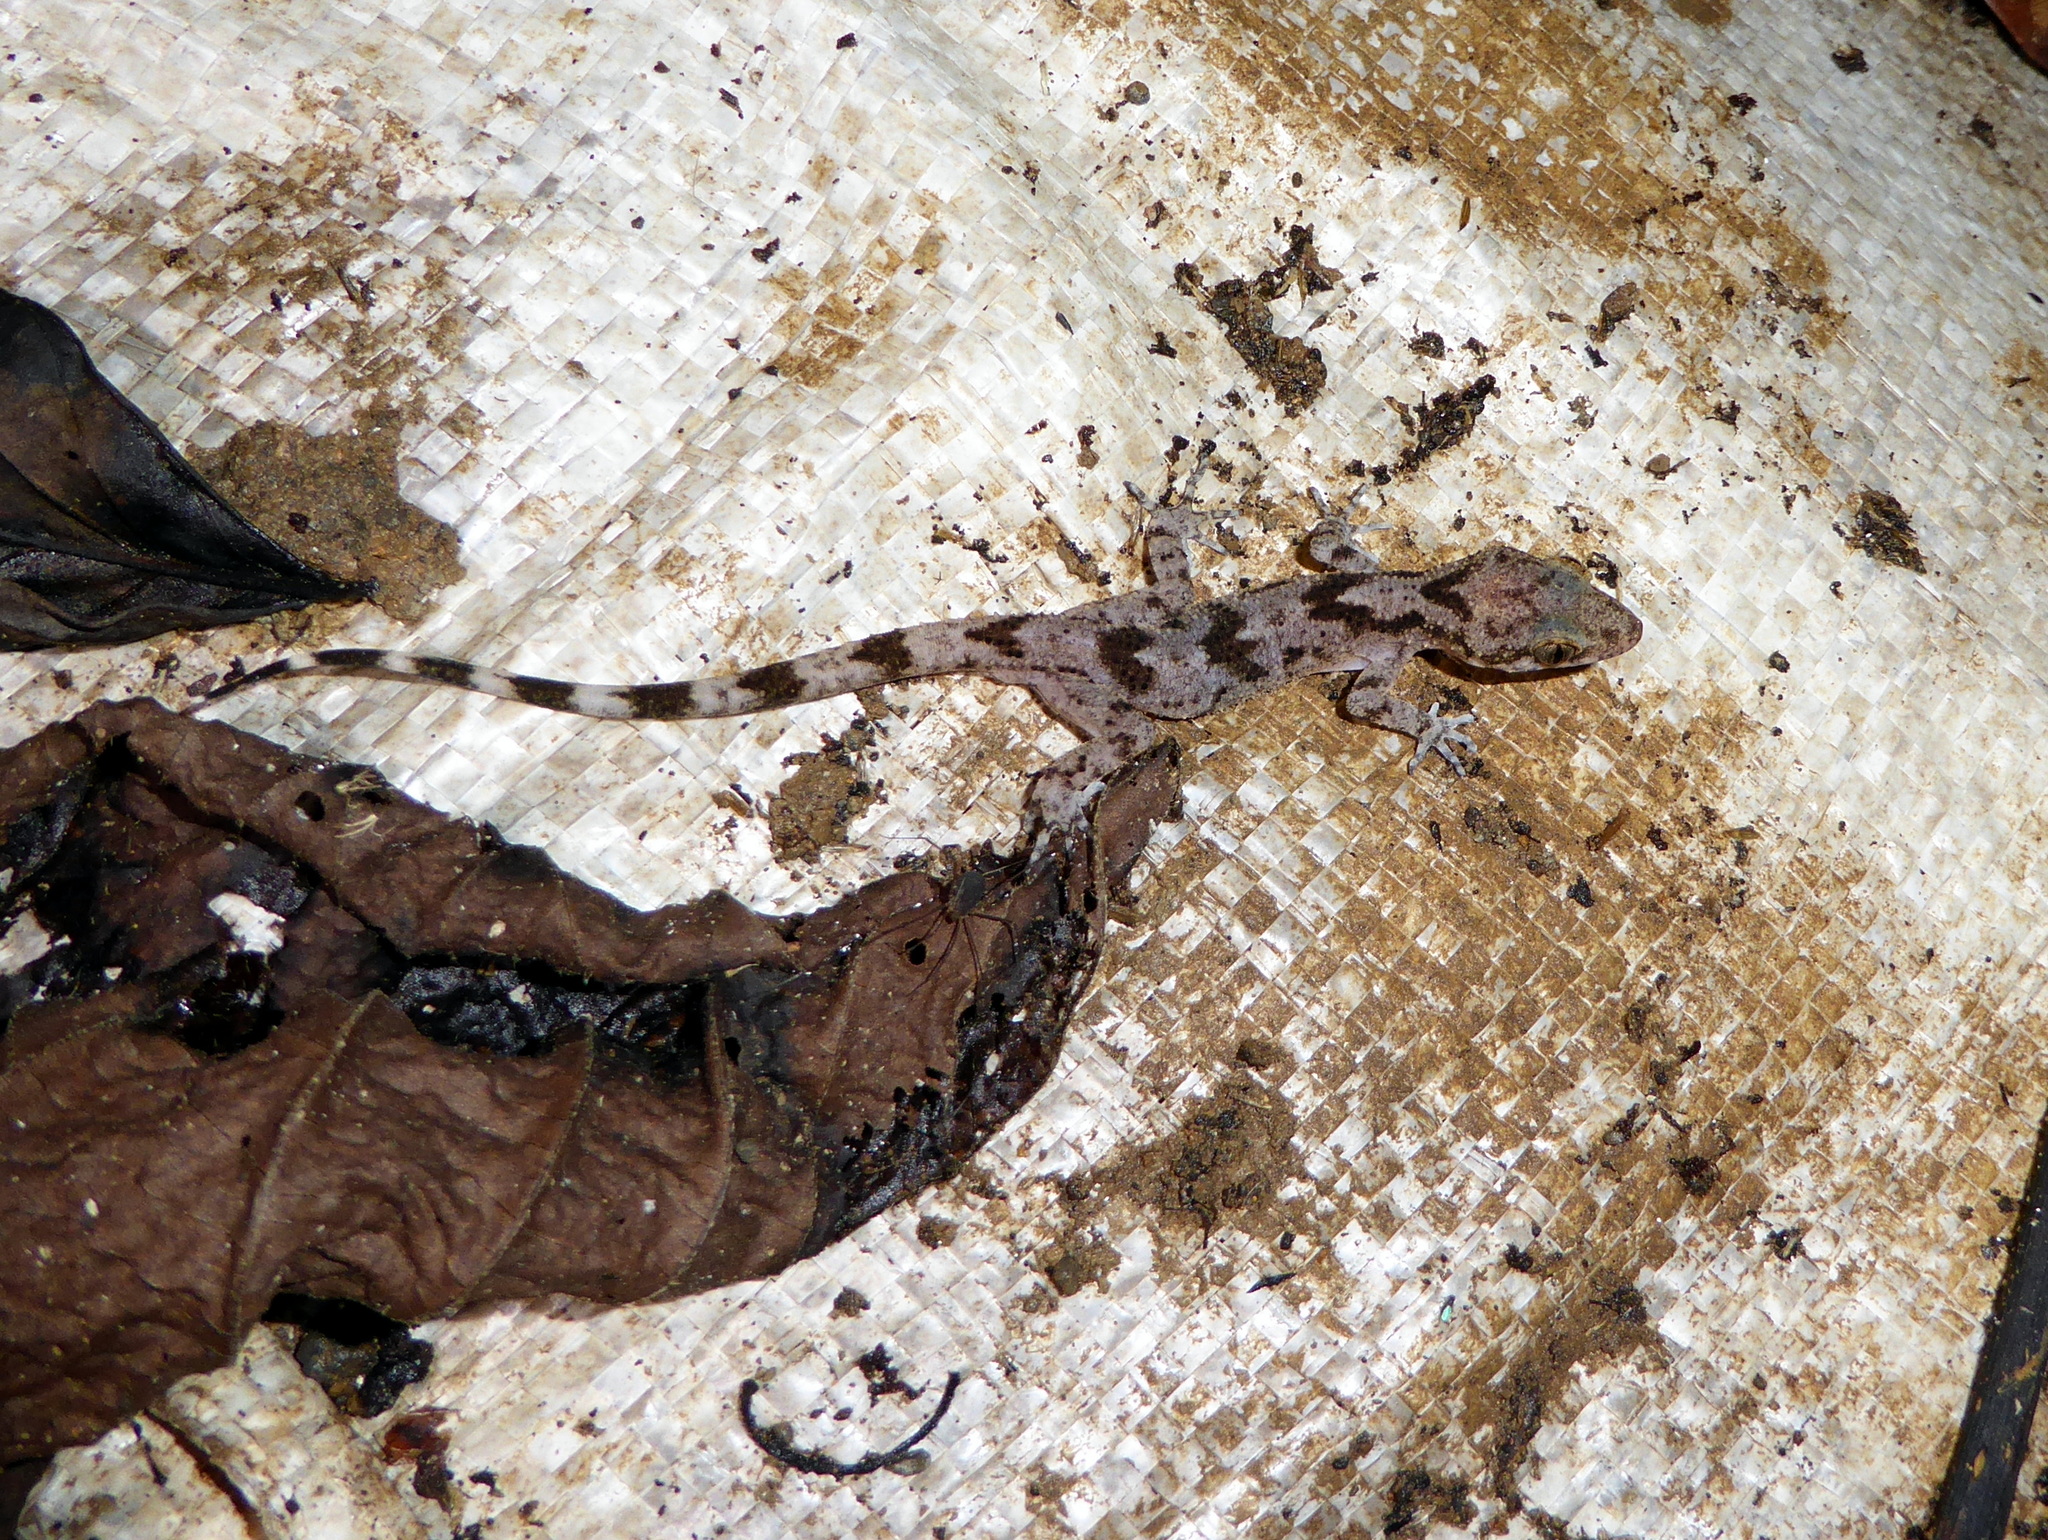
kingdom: Animalia
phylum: Chordata
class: Squamata
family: Gekkonidae
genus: Cyrtodactylus
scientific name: Cyrtodactylus jellesmae
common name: Kabaena bow-fingered gecko
